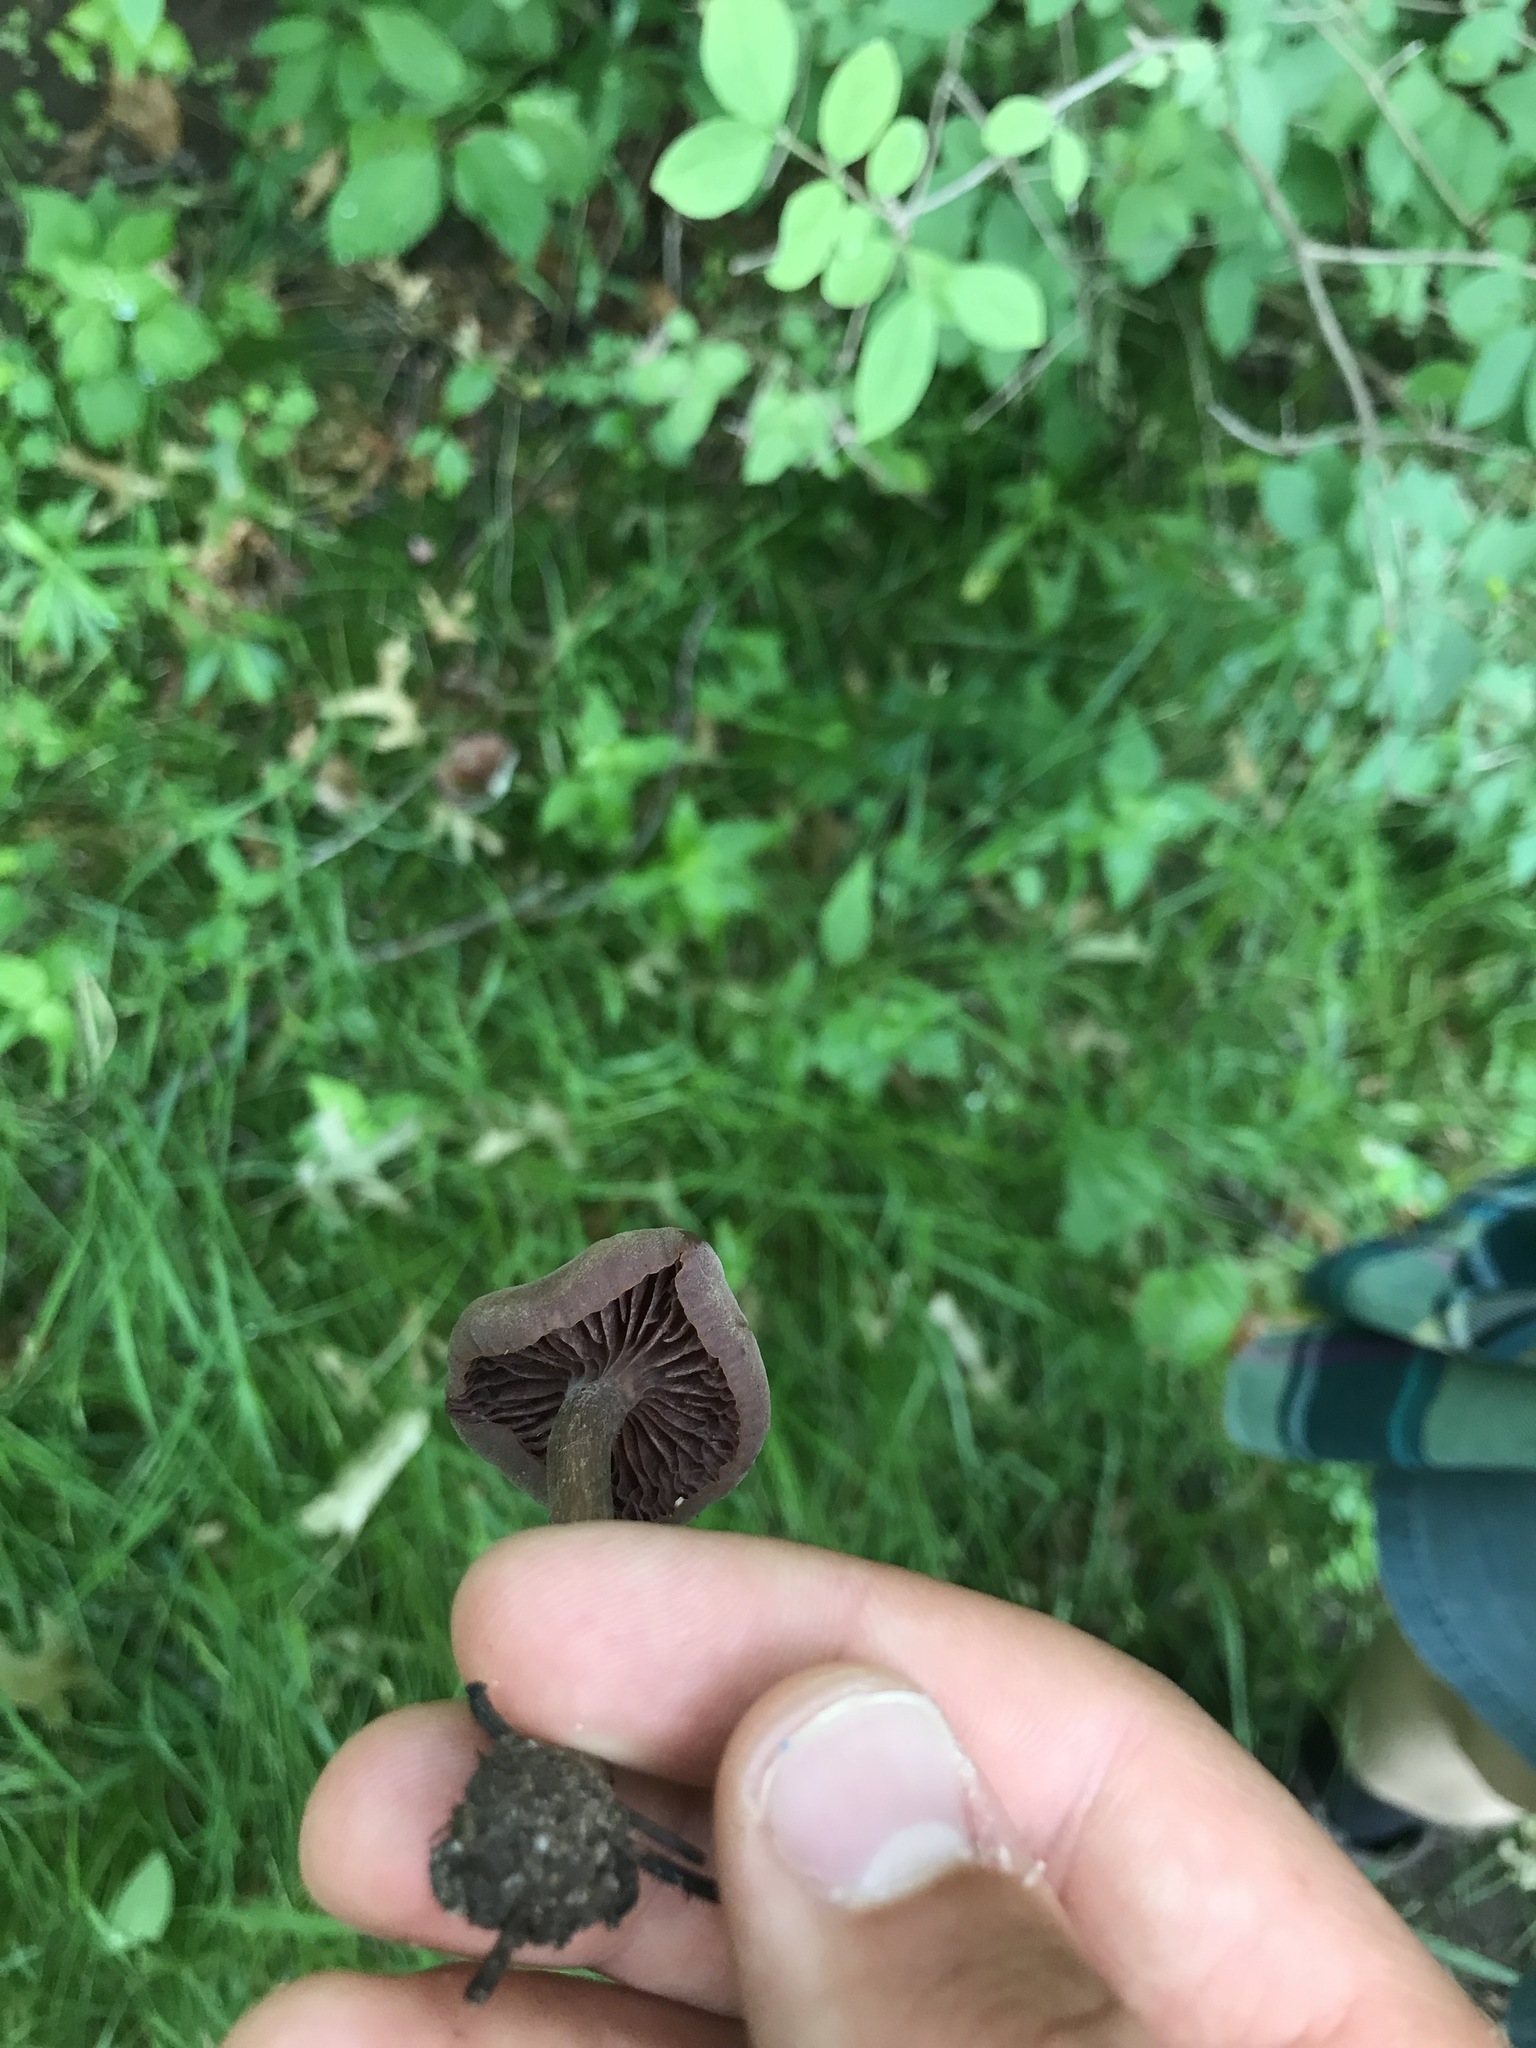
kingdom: Fungi
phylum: Basidiomycota
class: Agaricomycetes
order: Agaricales
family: Hydnangiaceae
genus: Laccaria
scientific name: Laccaria amethystina
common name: Amethyst deceiver
